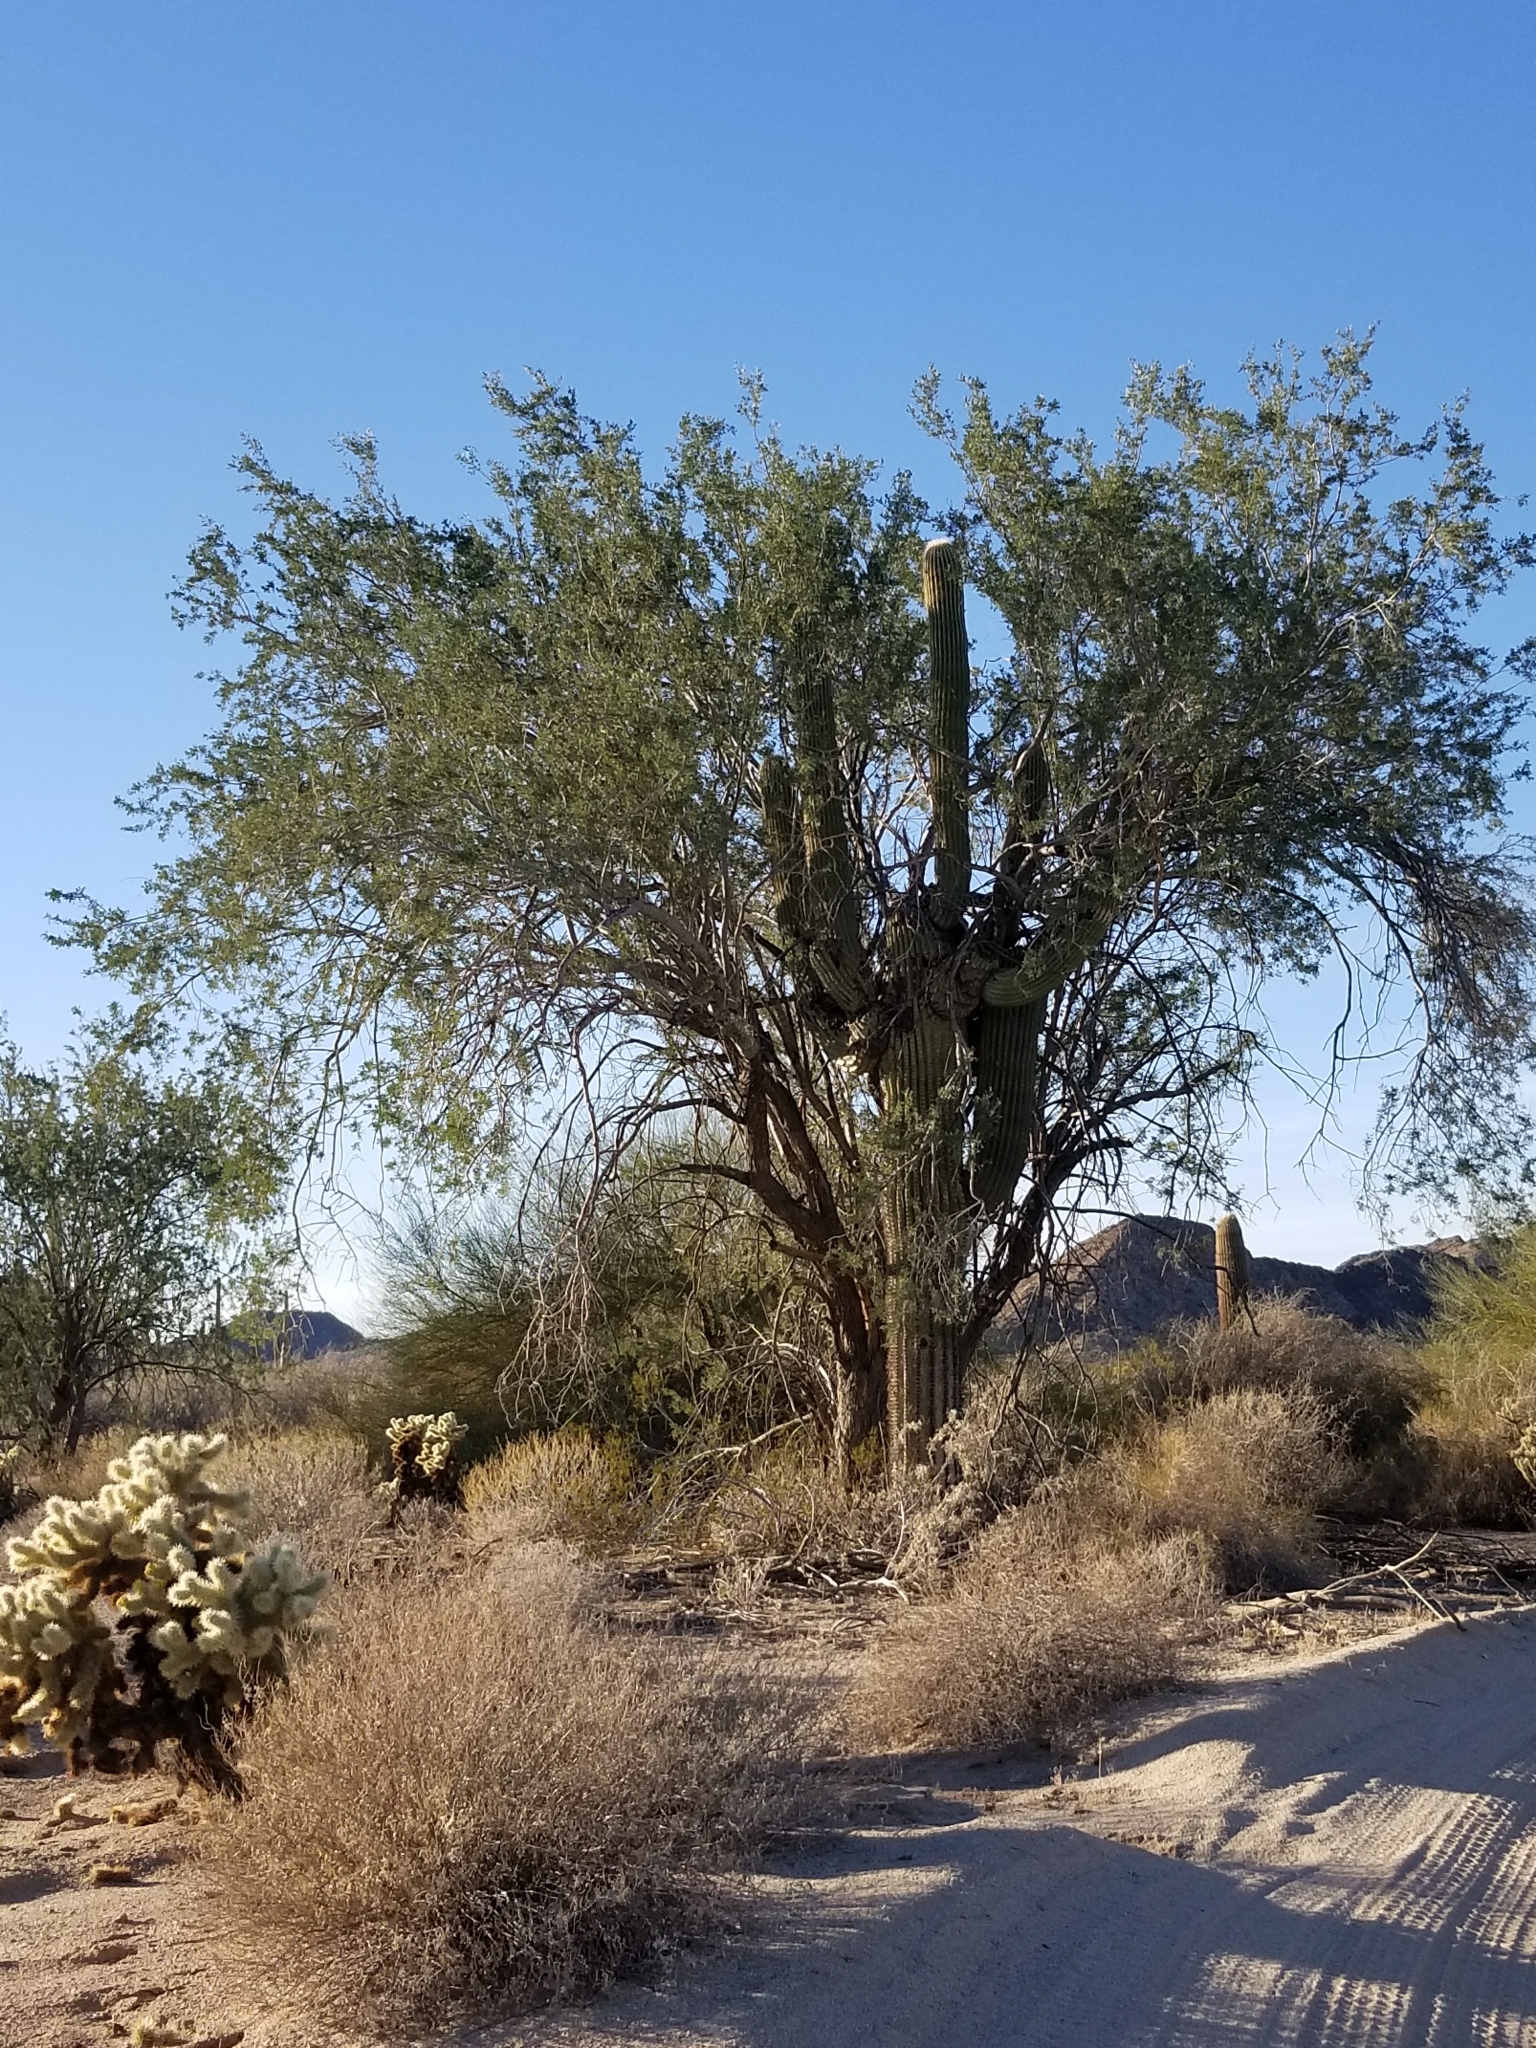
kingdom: Plantae
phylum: Tracheophyta
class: Magnoliopsida
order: Fabales
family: Fabaceae
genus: Olneya
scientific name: Olneya tesota
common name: Desert ironwood
